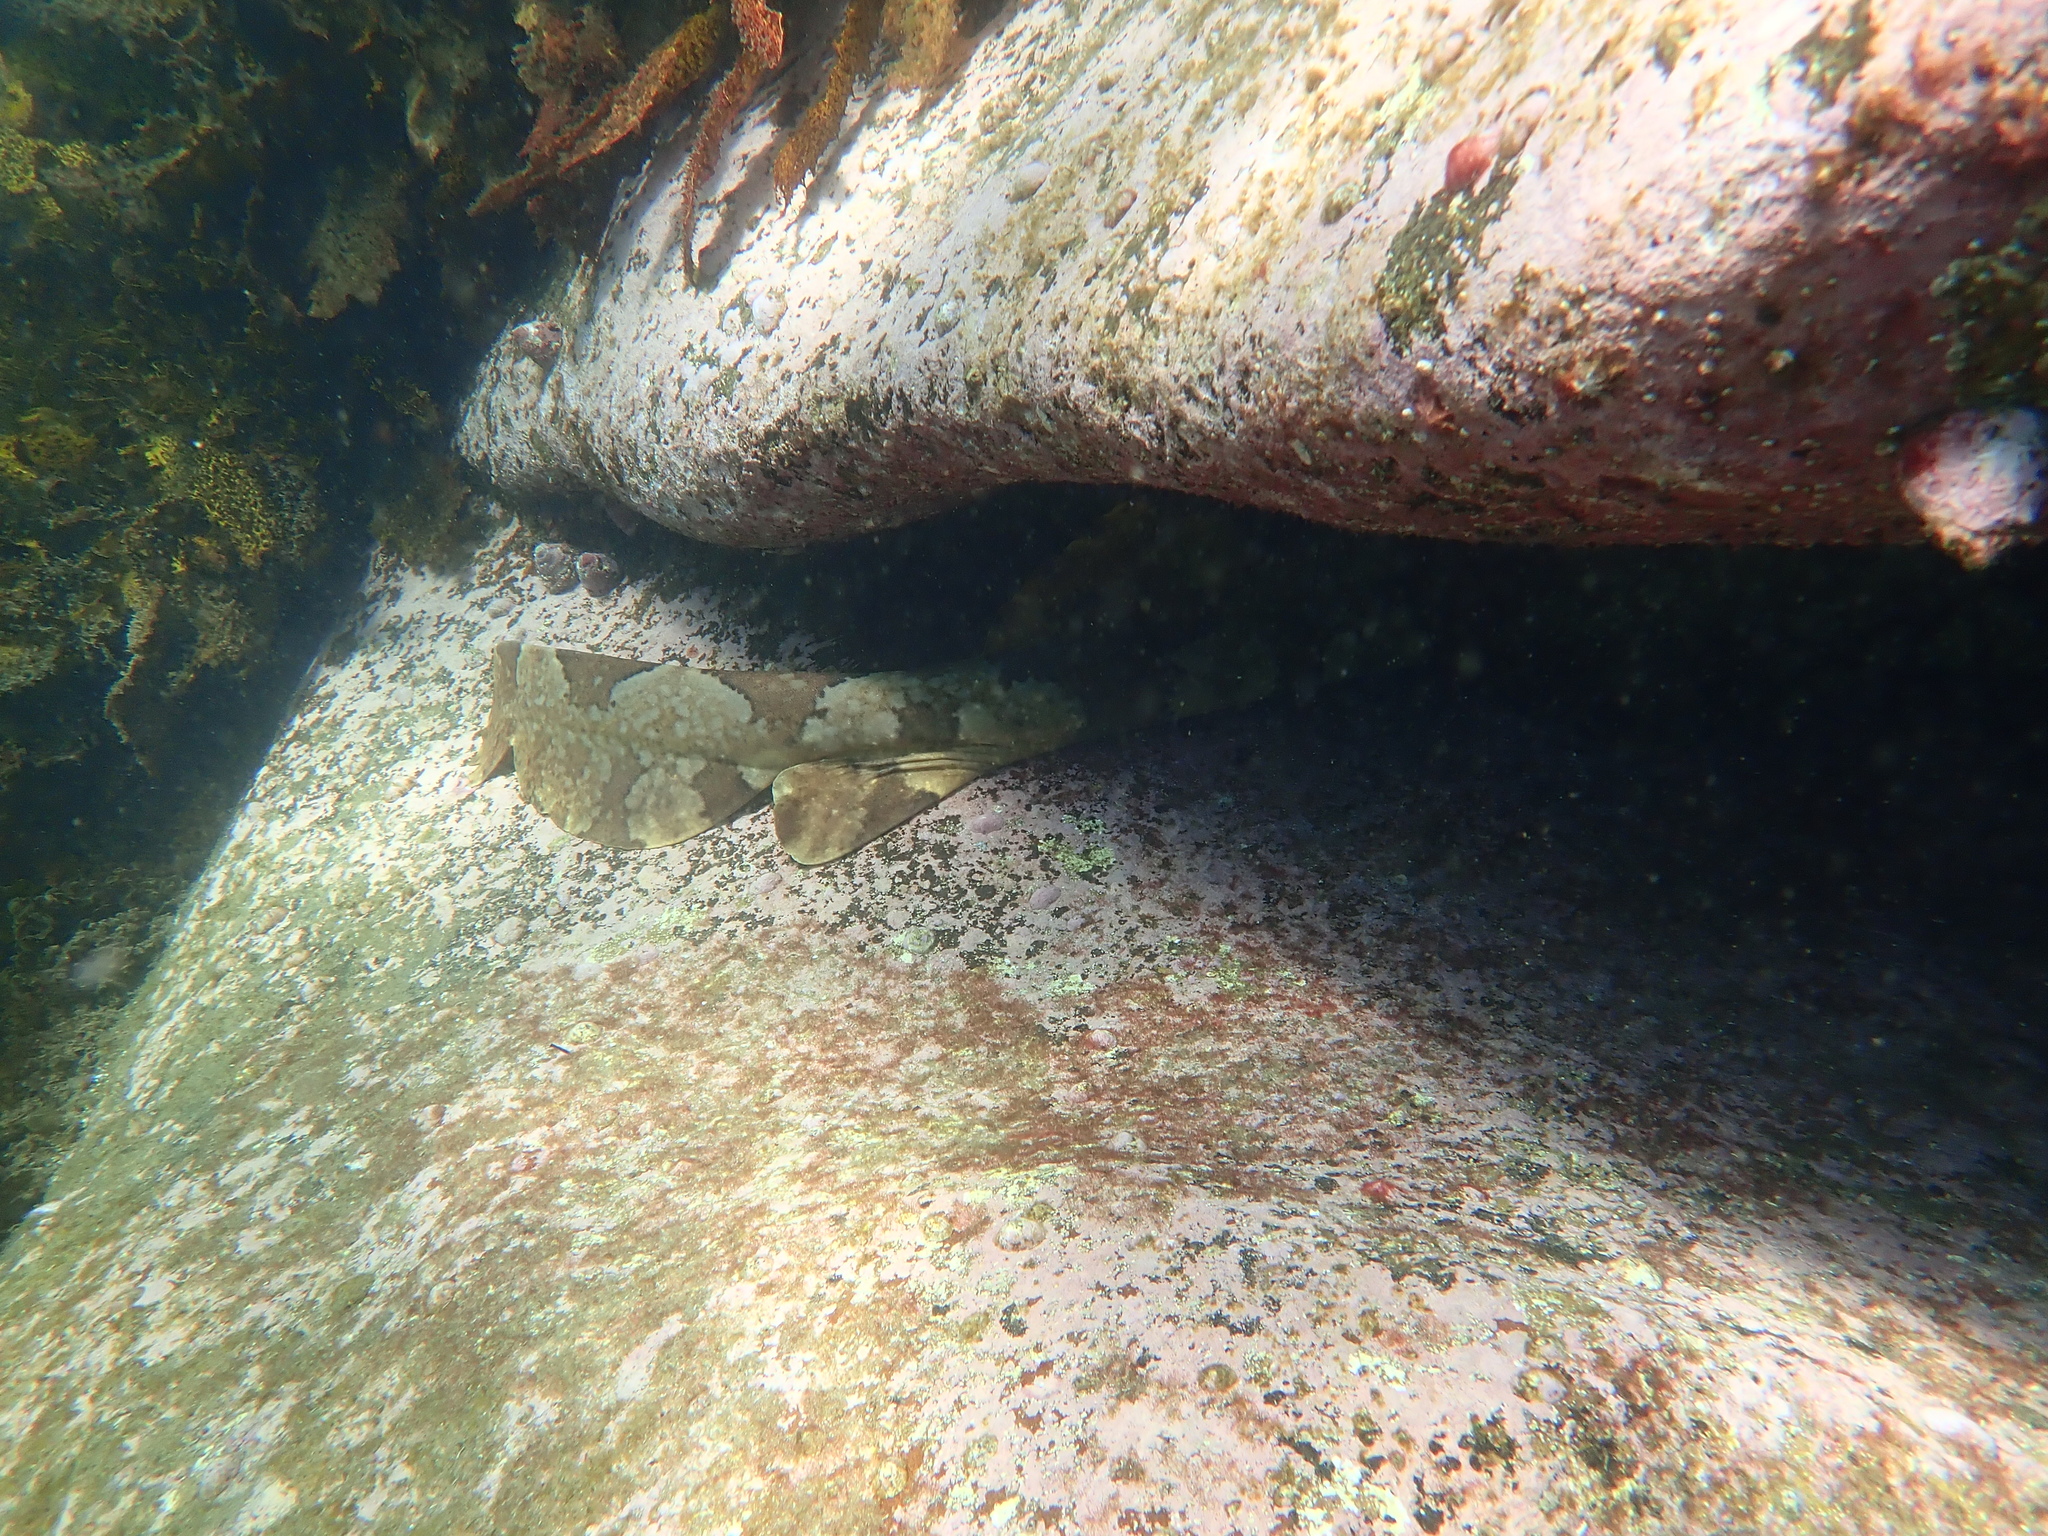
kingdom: Animalia
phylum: Chordata
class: Elasmobranchii
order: Orectolobiformes
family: Orectolobidae
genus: Orectolobus
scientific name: Orectolobus halei
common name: Banded wobbegong
